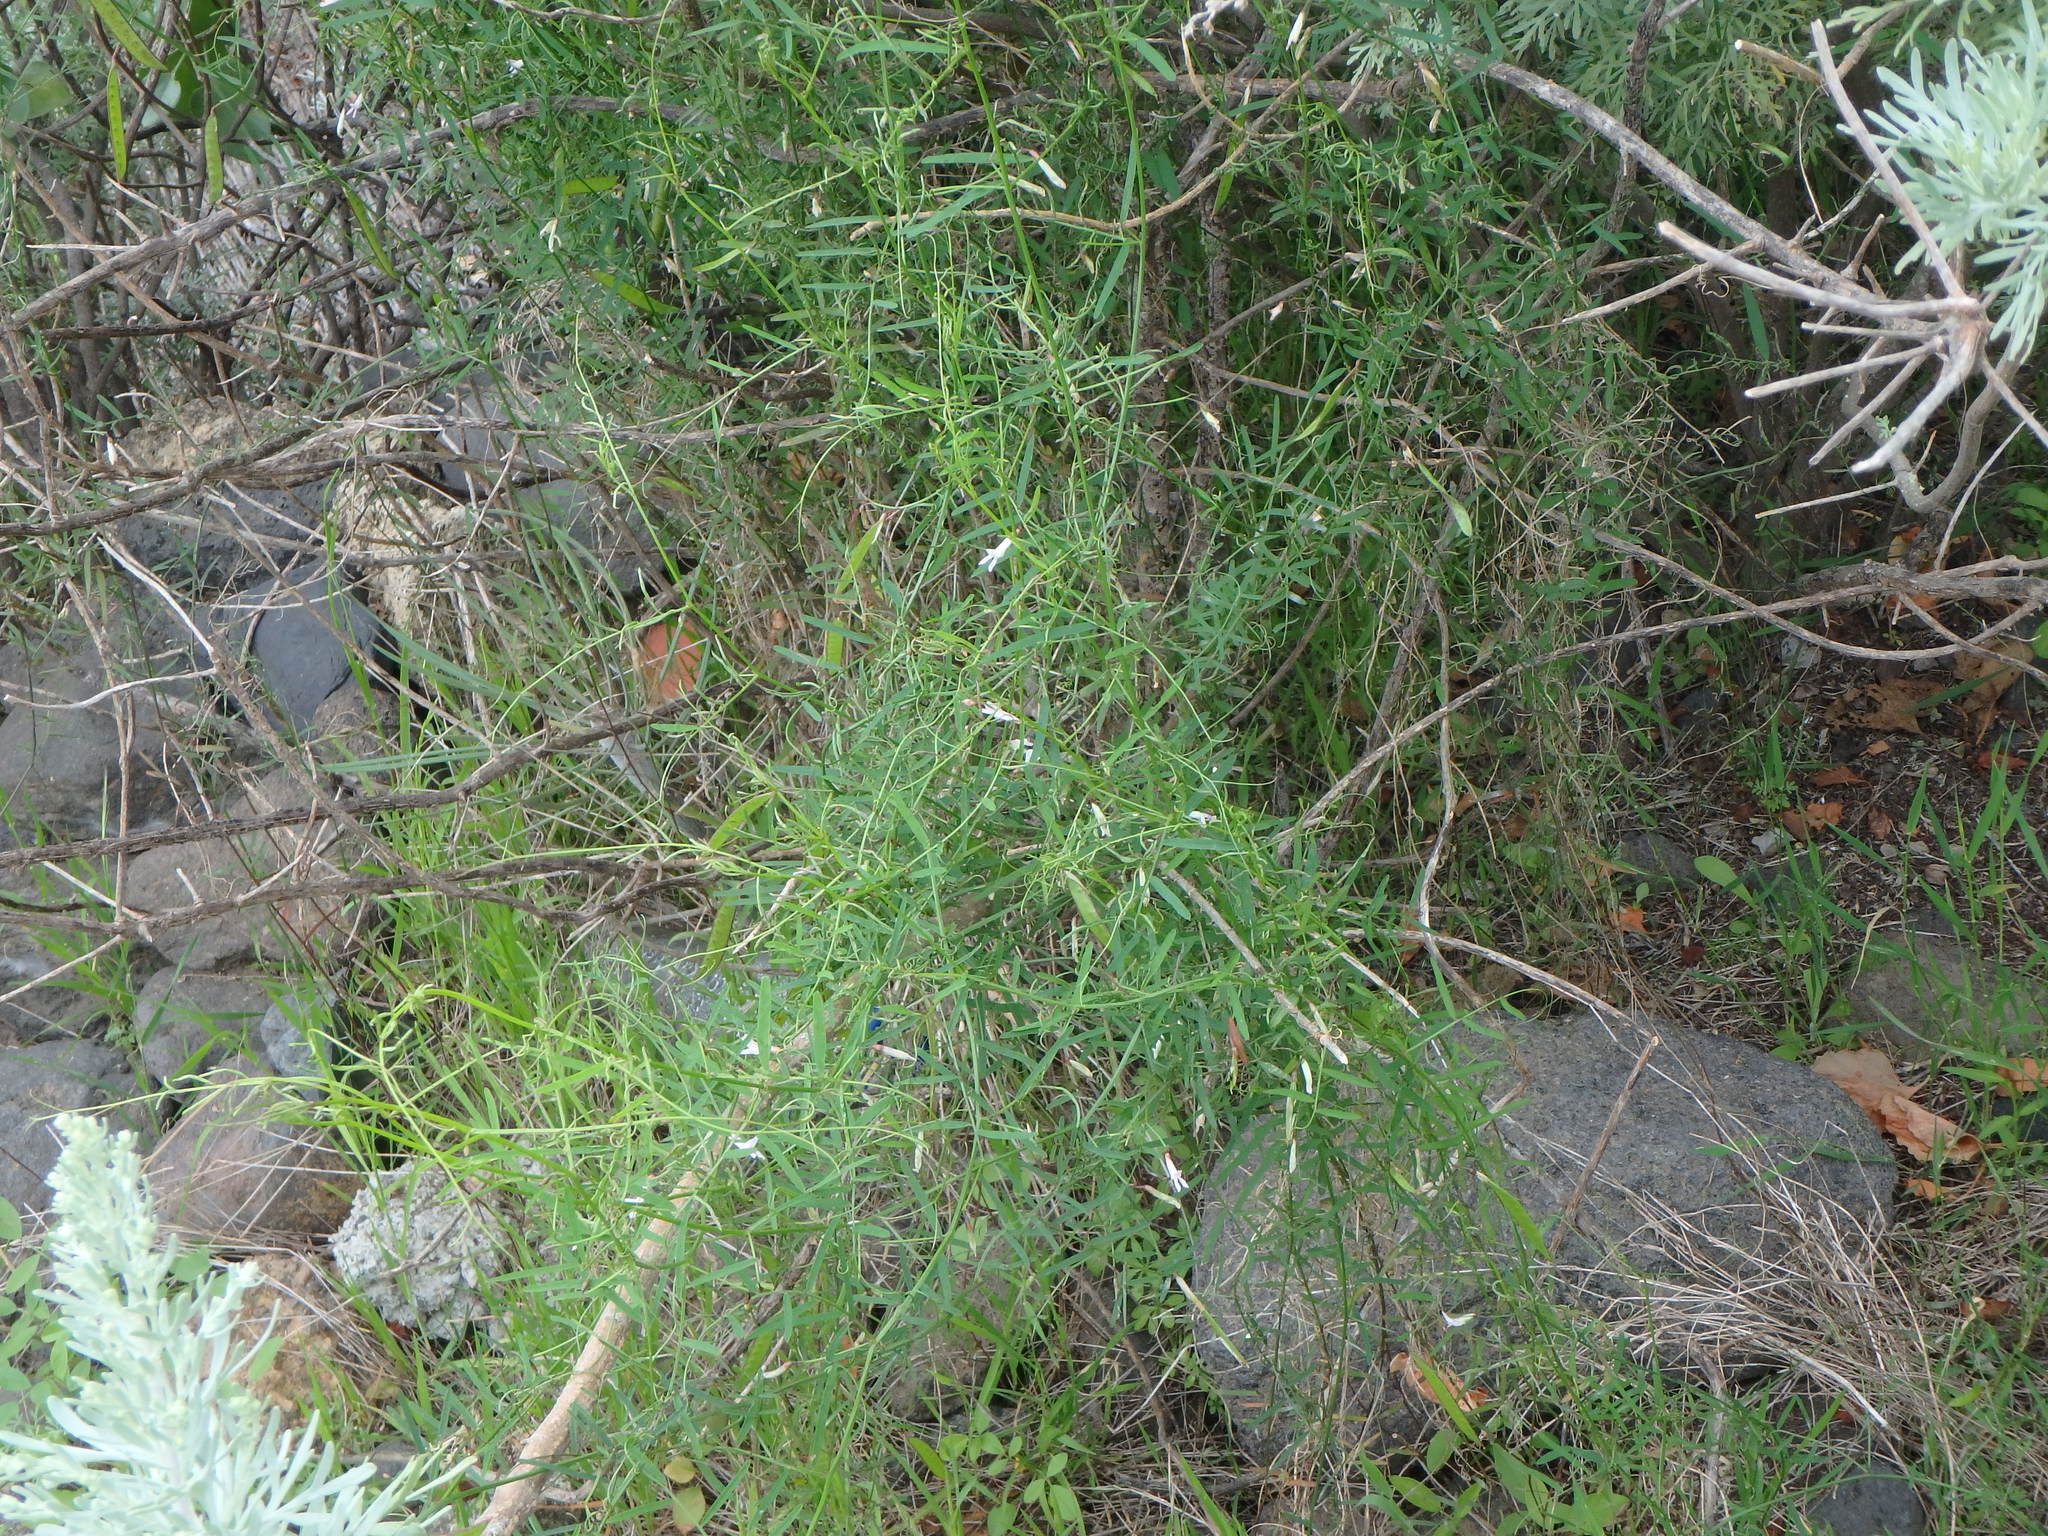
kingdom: Plantae
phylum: Tracheophyta
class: Magnoliopsida
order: Fabales
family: Fabaceae
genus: Vicia
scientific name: Vicia aphylla
